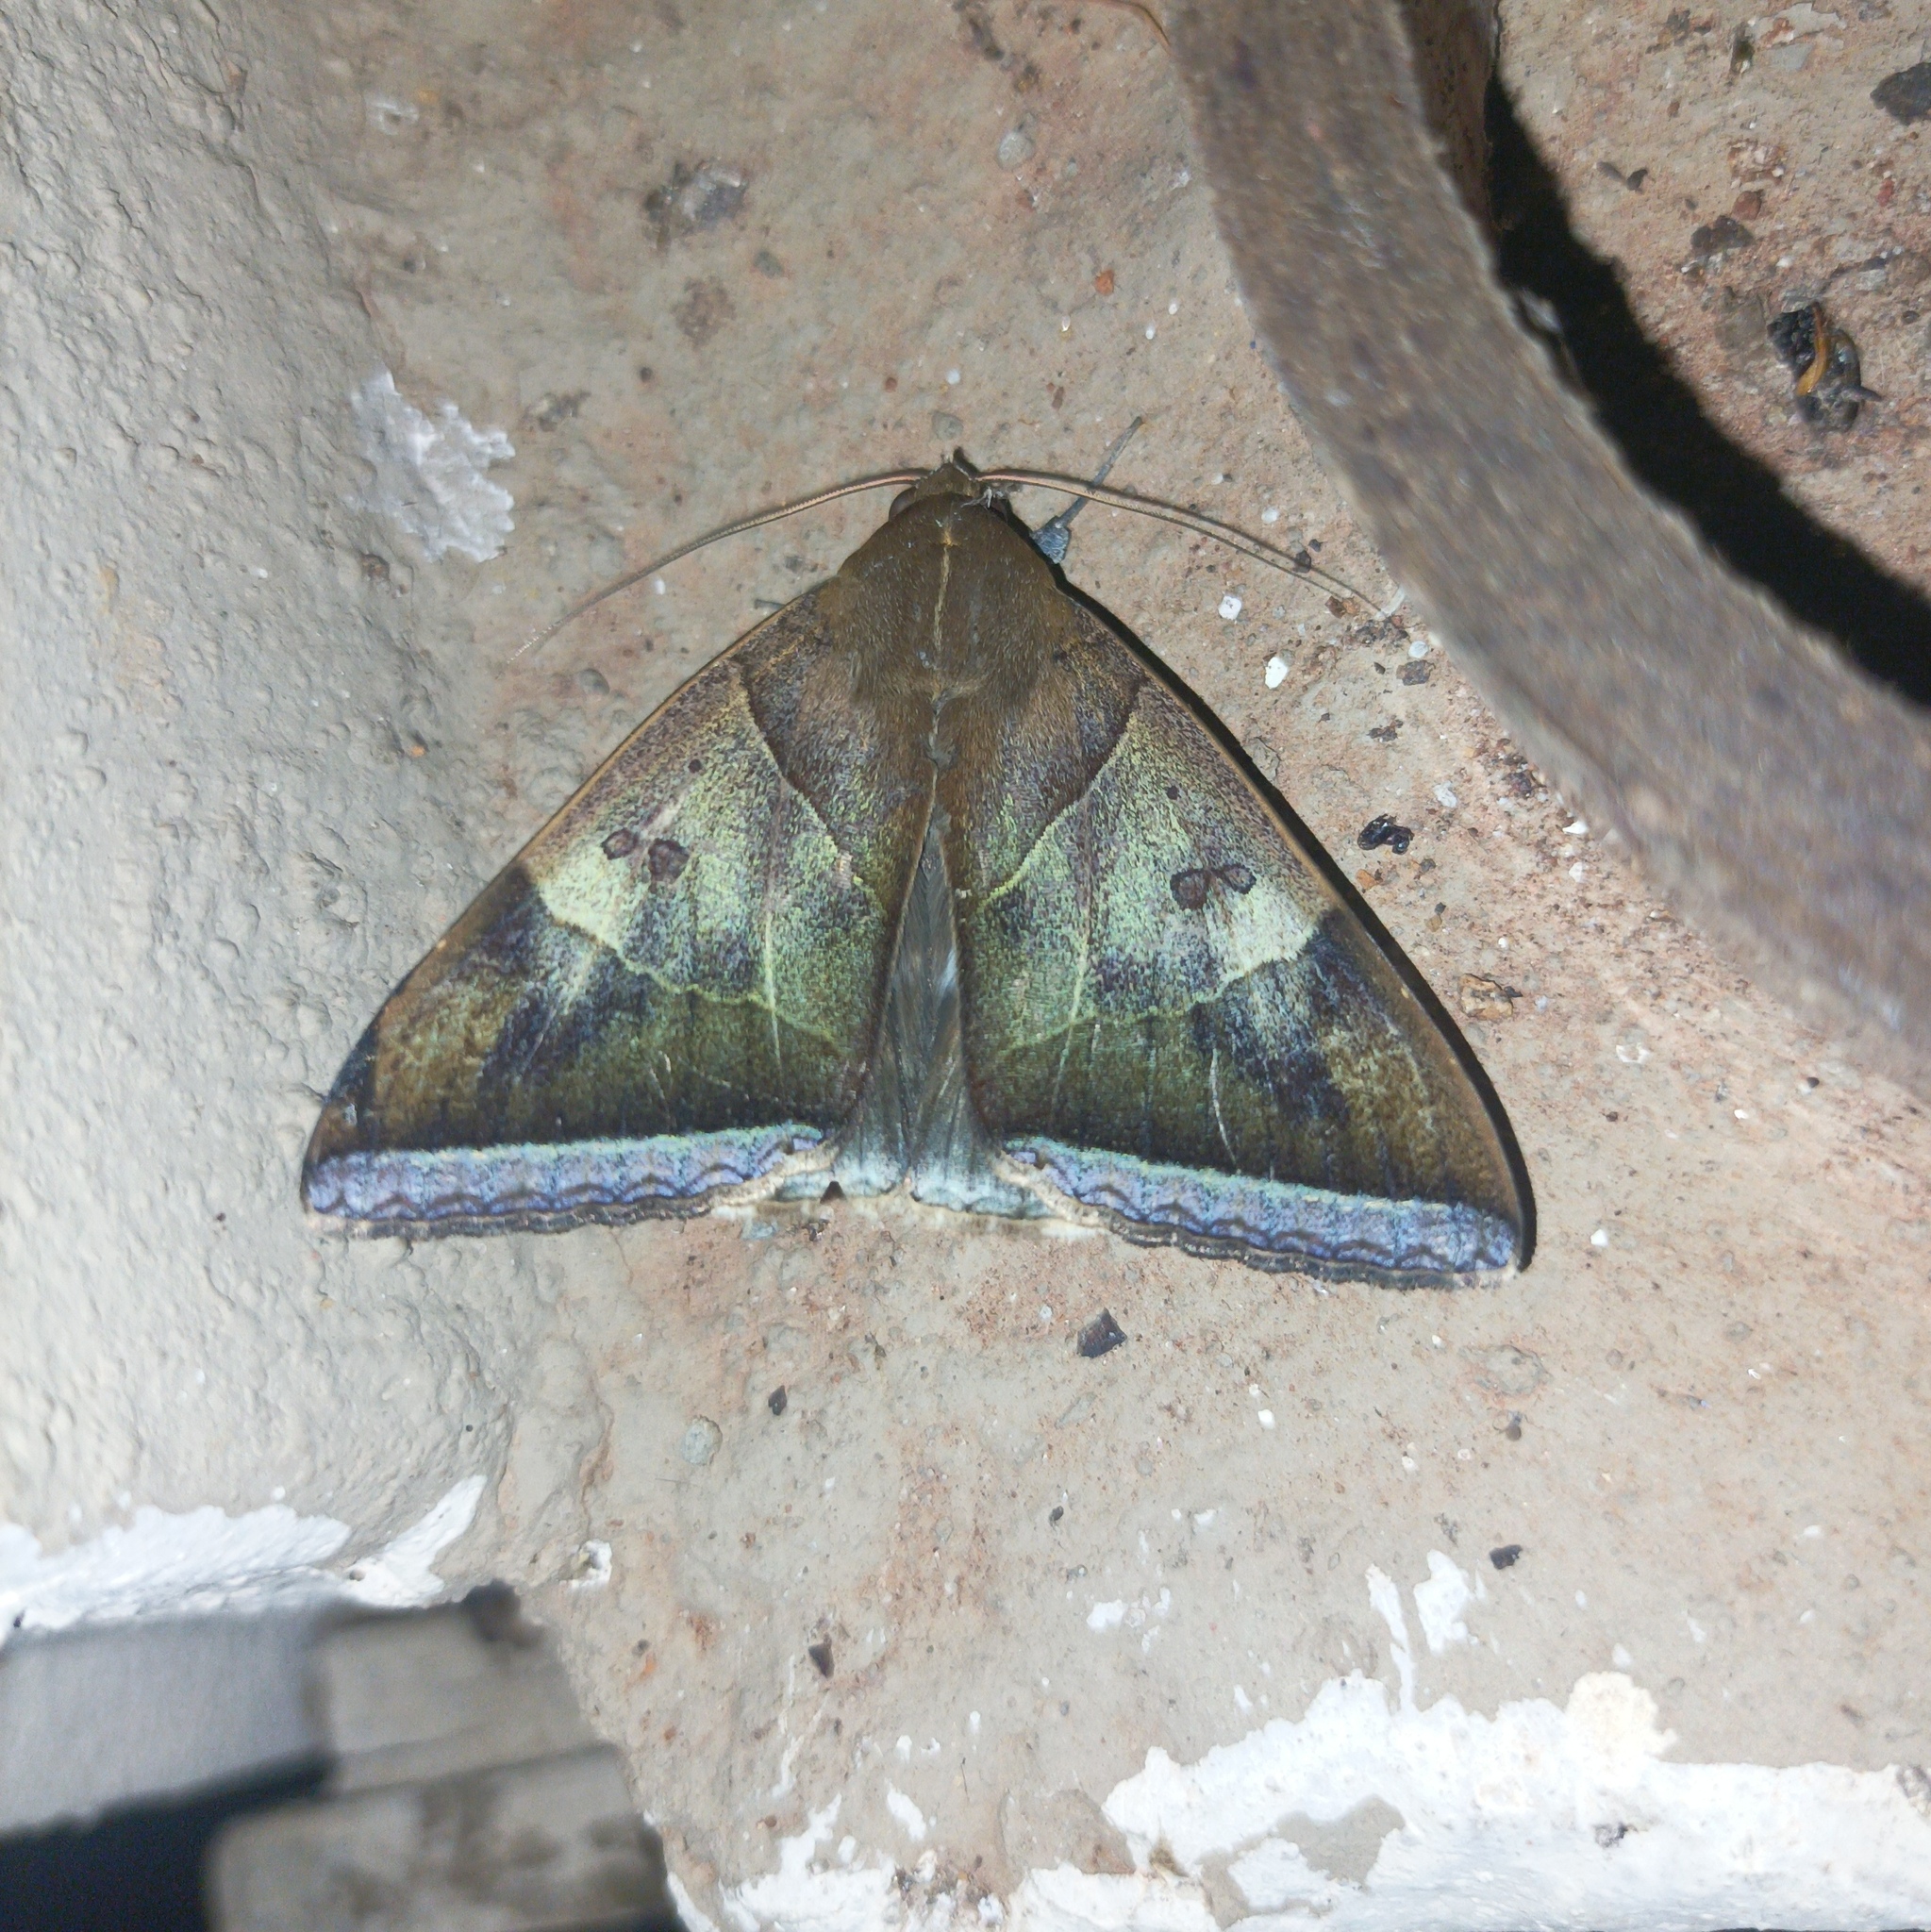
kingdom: Animalia
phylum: Arthropoda
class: Insecta
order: Lepidoptera
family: Erebidae
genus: Artena
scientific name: Artena dotata
